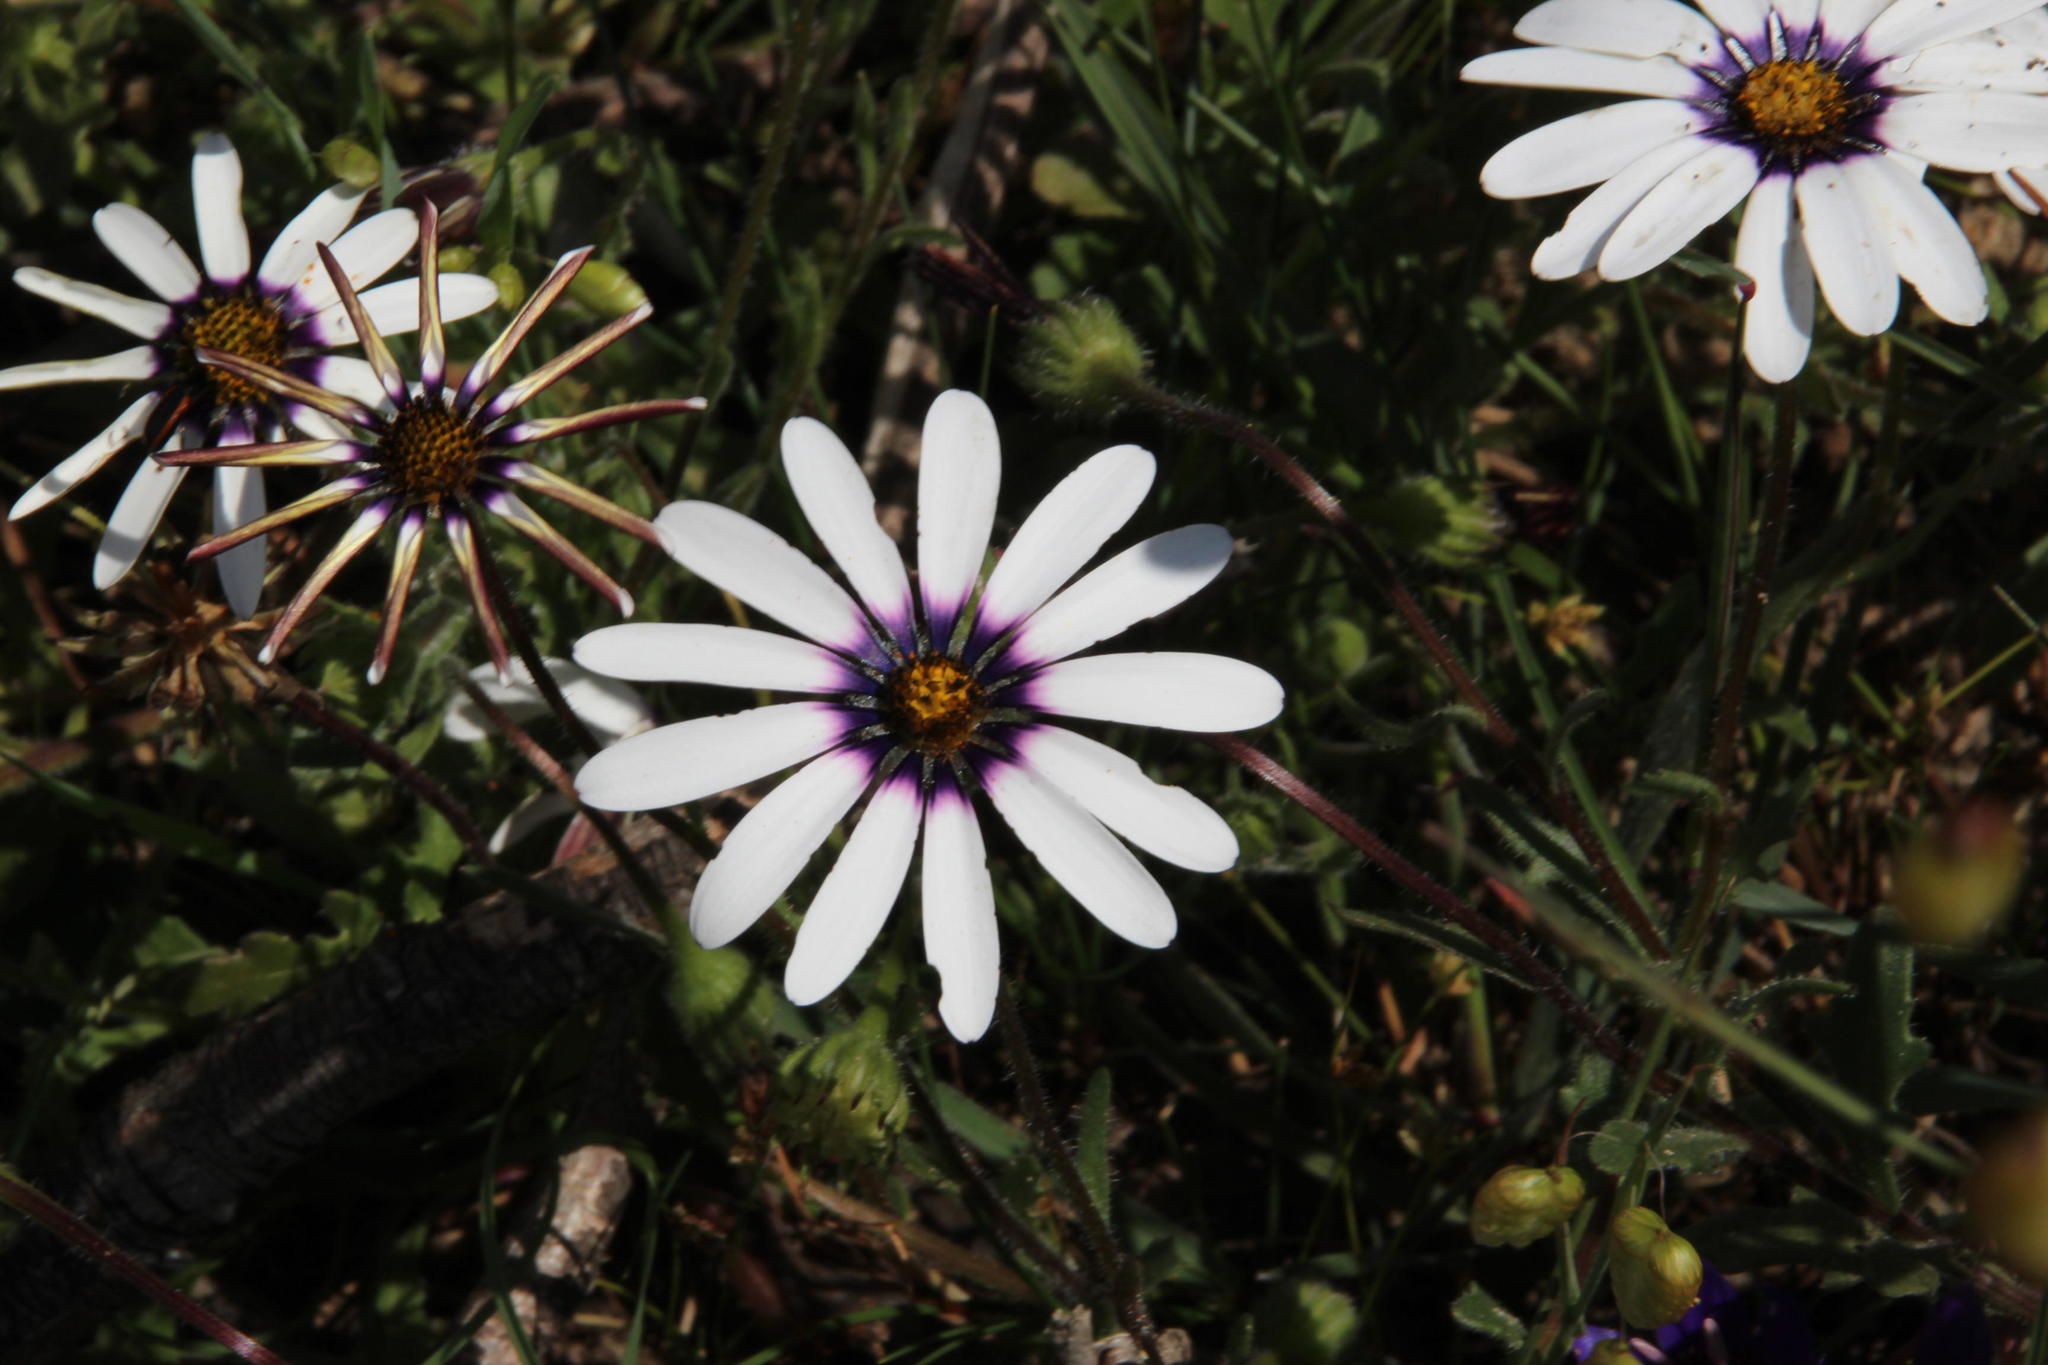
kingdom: Plantae
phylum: Tracheophyta
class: Magnoliopsida
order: Asterales
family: Asteraceae
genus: Dimorphotheca
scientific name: Dimorphotheca pluvialis
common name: Weather prophet
